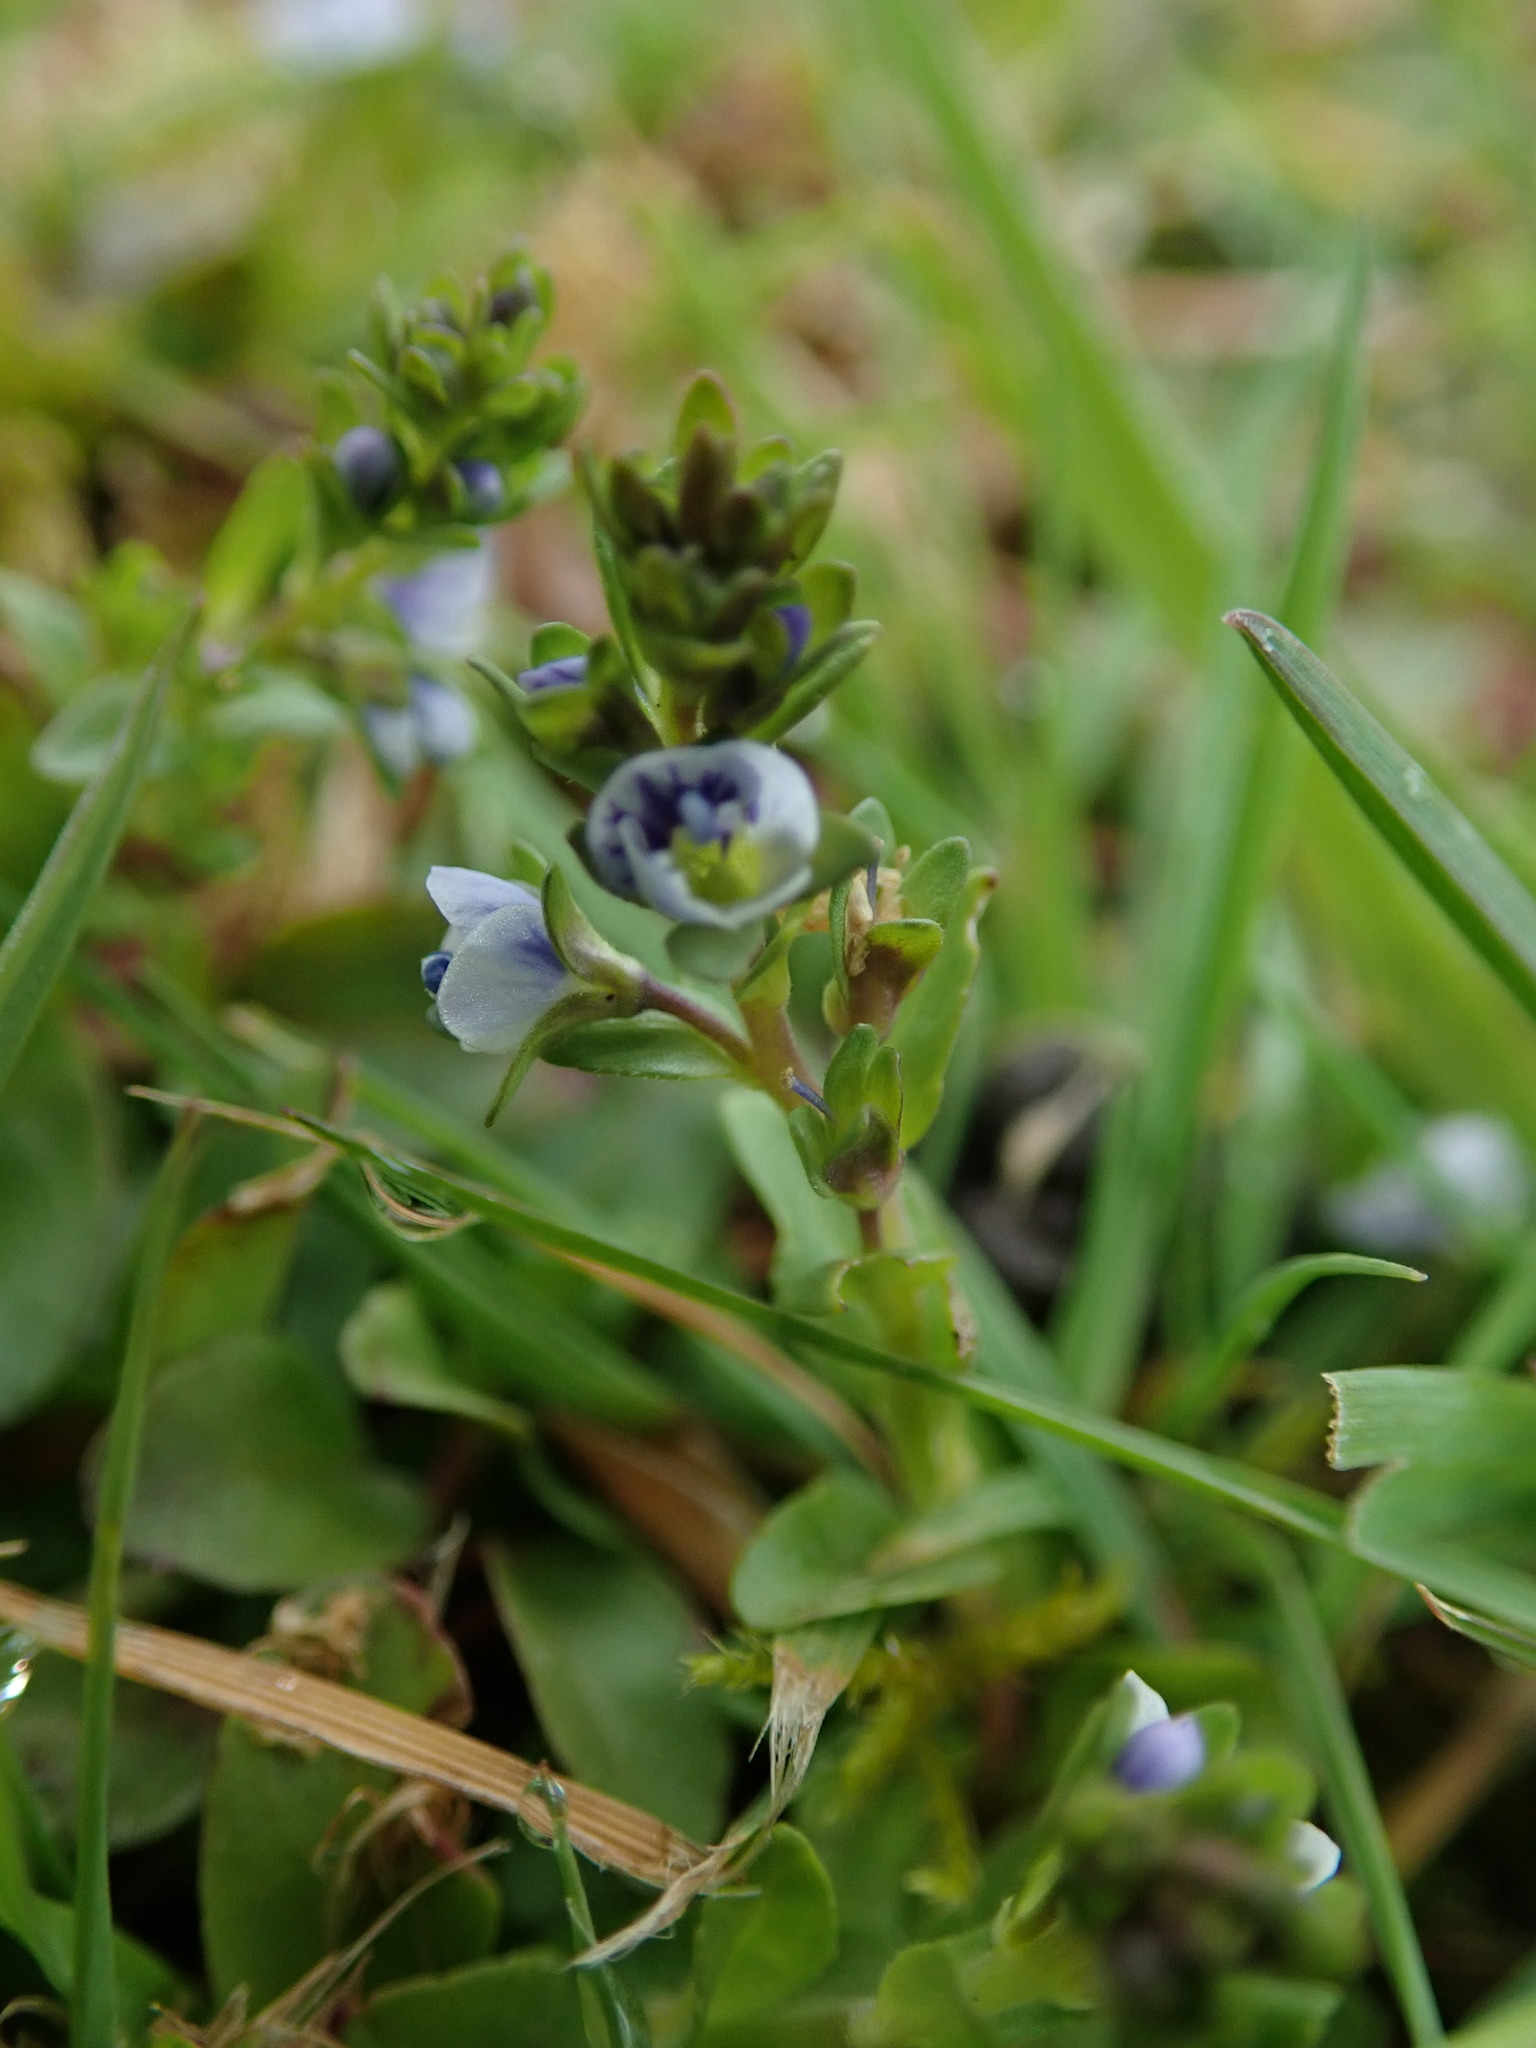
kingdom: Plantae
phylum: Tracheophyta
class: Magnoliopsida
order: Lamiales
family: Plantaginaceae
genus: Veronica
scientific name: Veronica serpyllifolia
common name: Thyme-leaved speedwell
